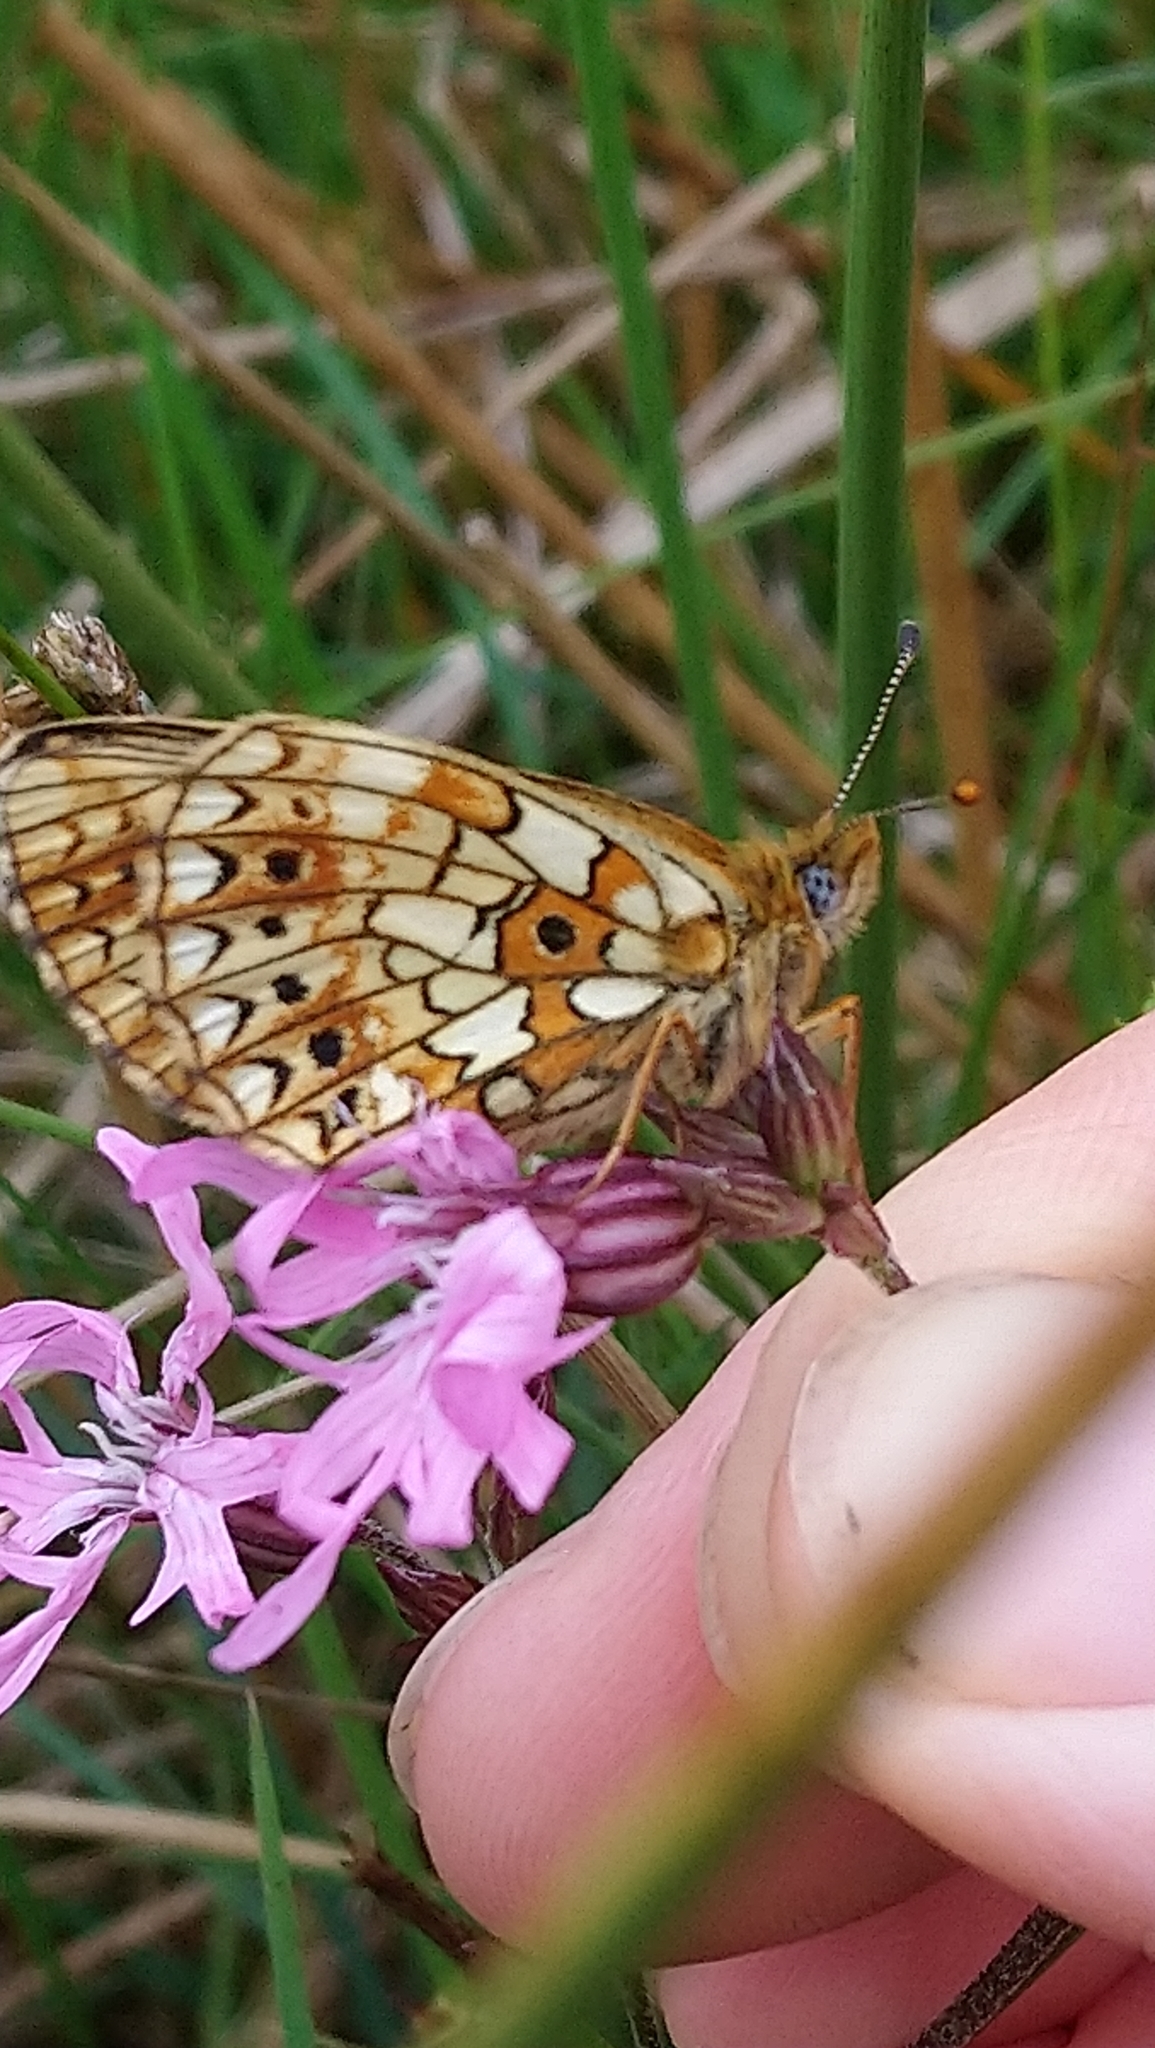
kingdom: Animalia
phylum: Arthropoda
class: Insecta
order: Lepidoptera
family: Nymphalidae
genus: Boloria
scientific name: Boloria selene
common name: Small pearl-bordered fritillary
